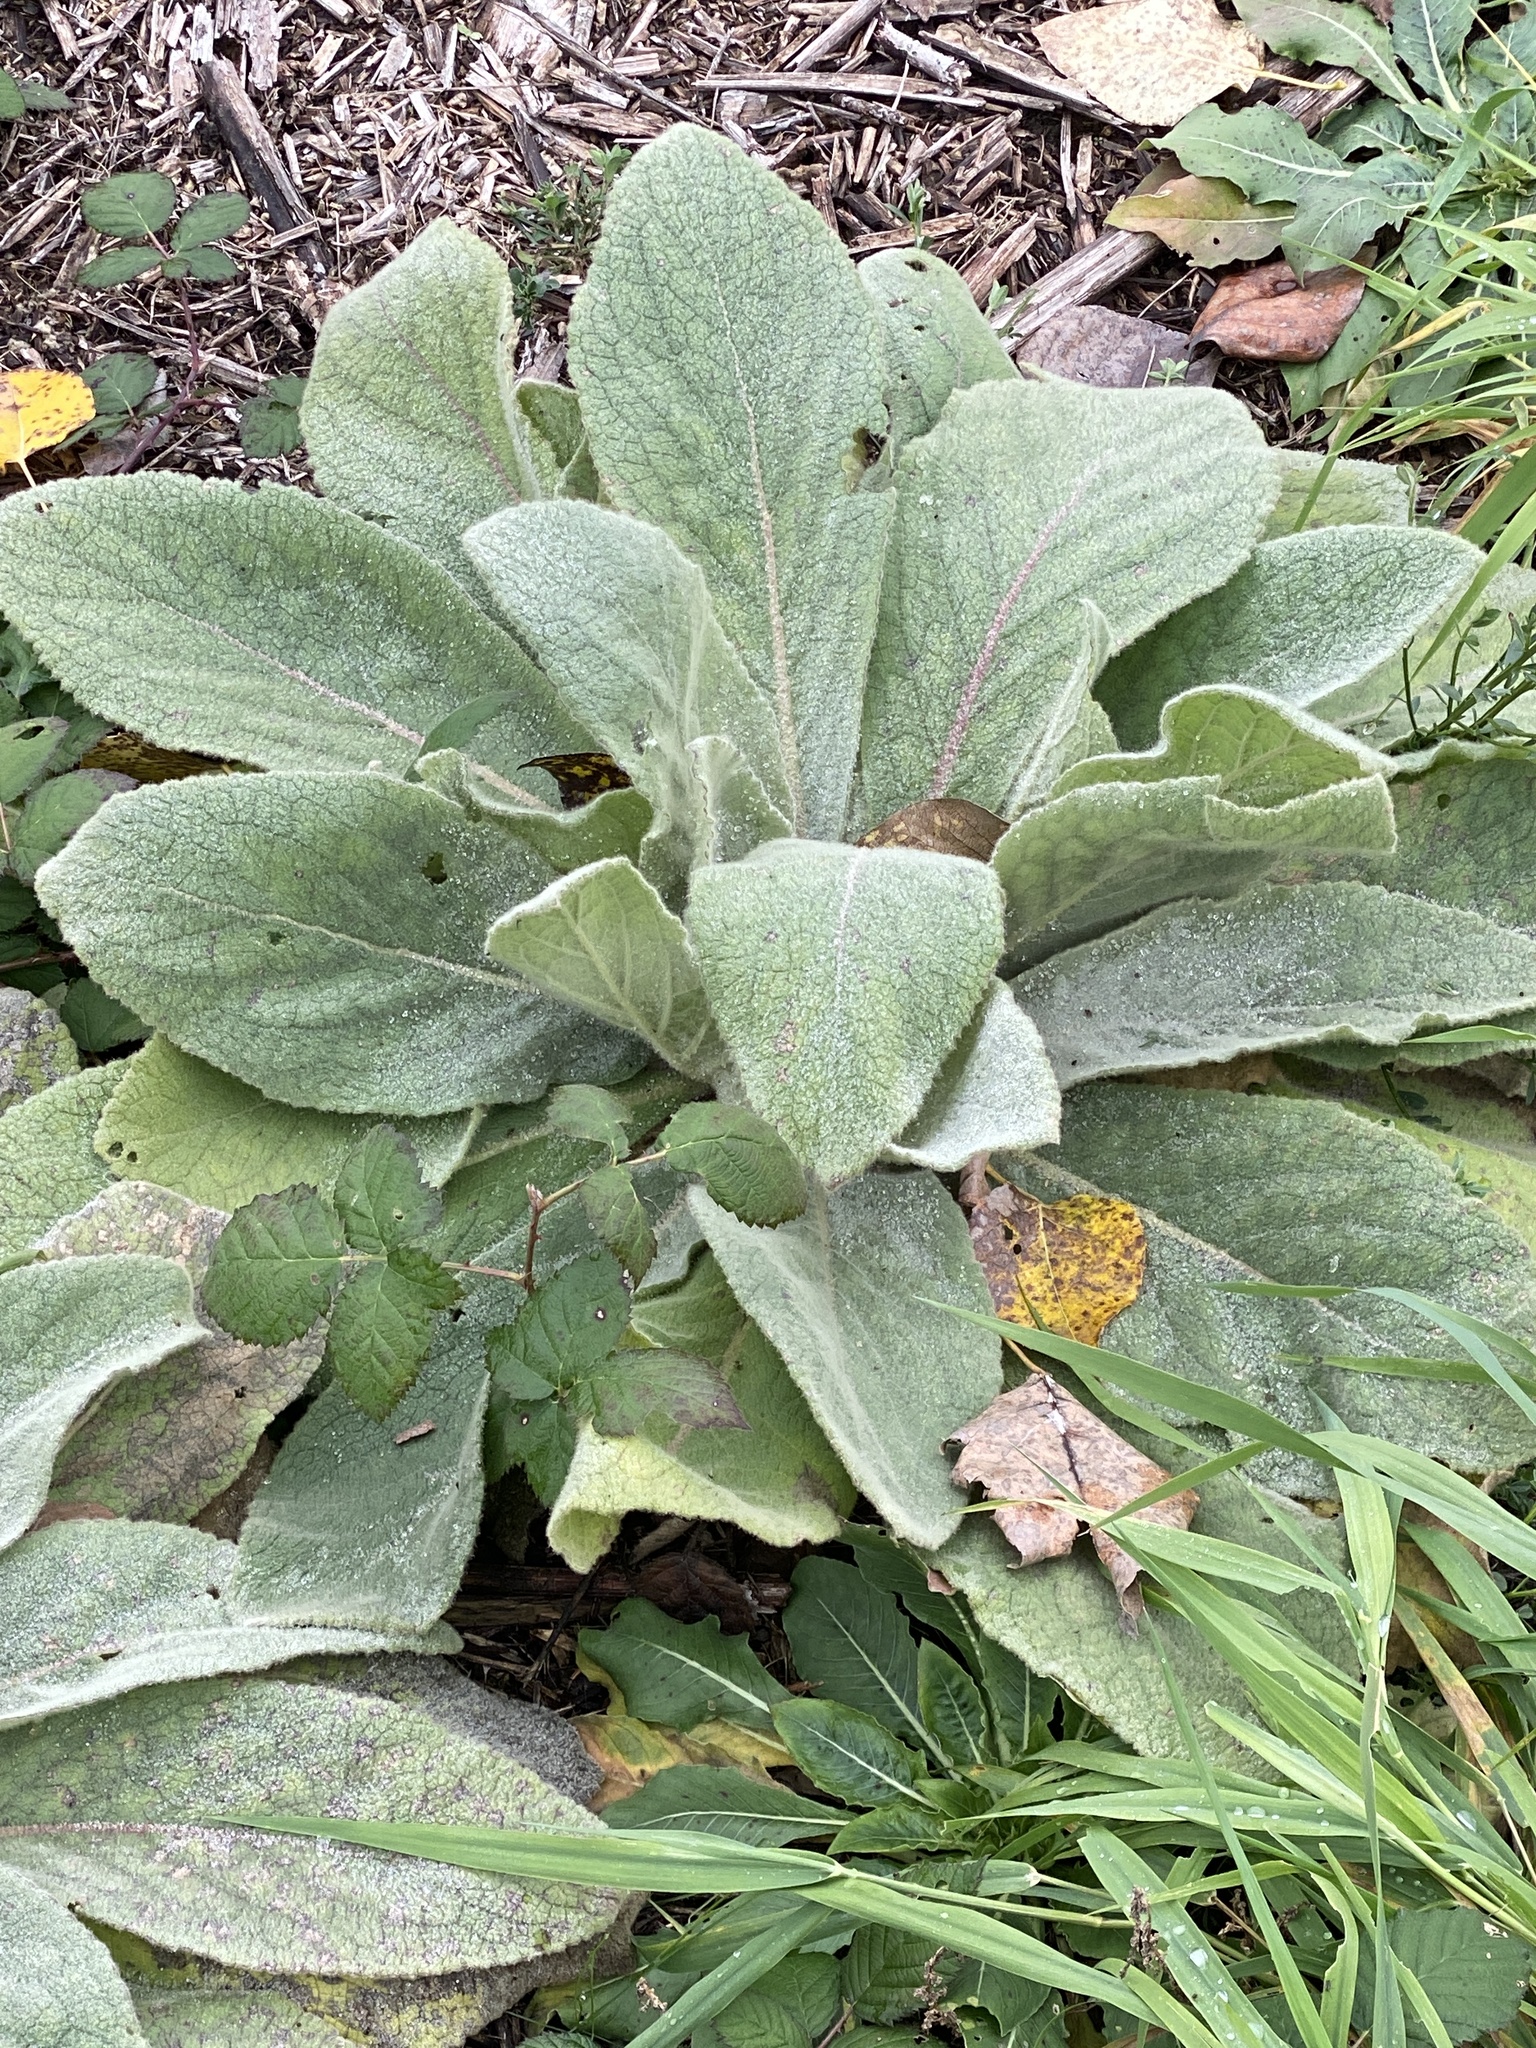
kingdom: Plantae
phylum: Tracheophyta
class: Magnoliopsida
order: Lamiales
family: Scrophulariaceae
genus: Verbascum
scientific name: Verbascum thapsus
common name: Common mullein
